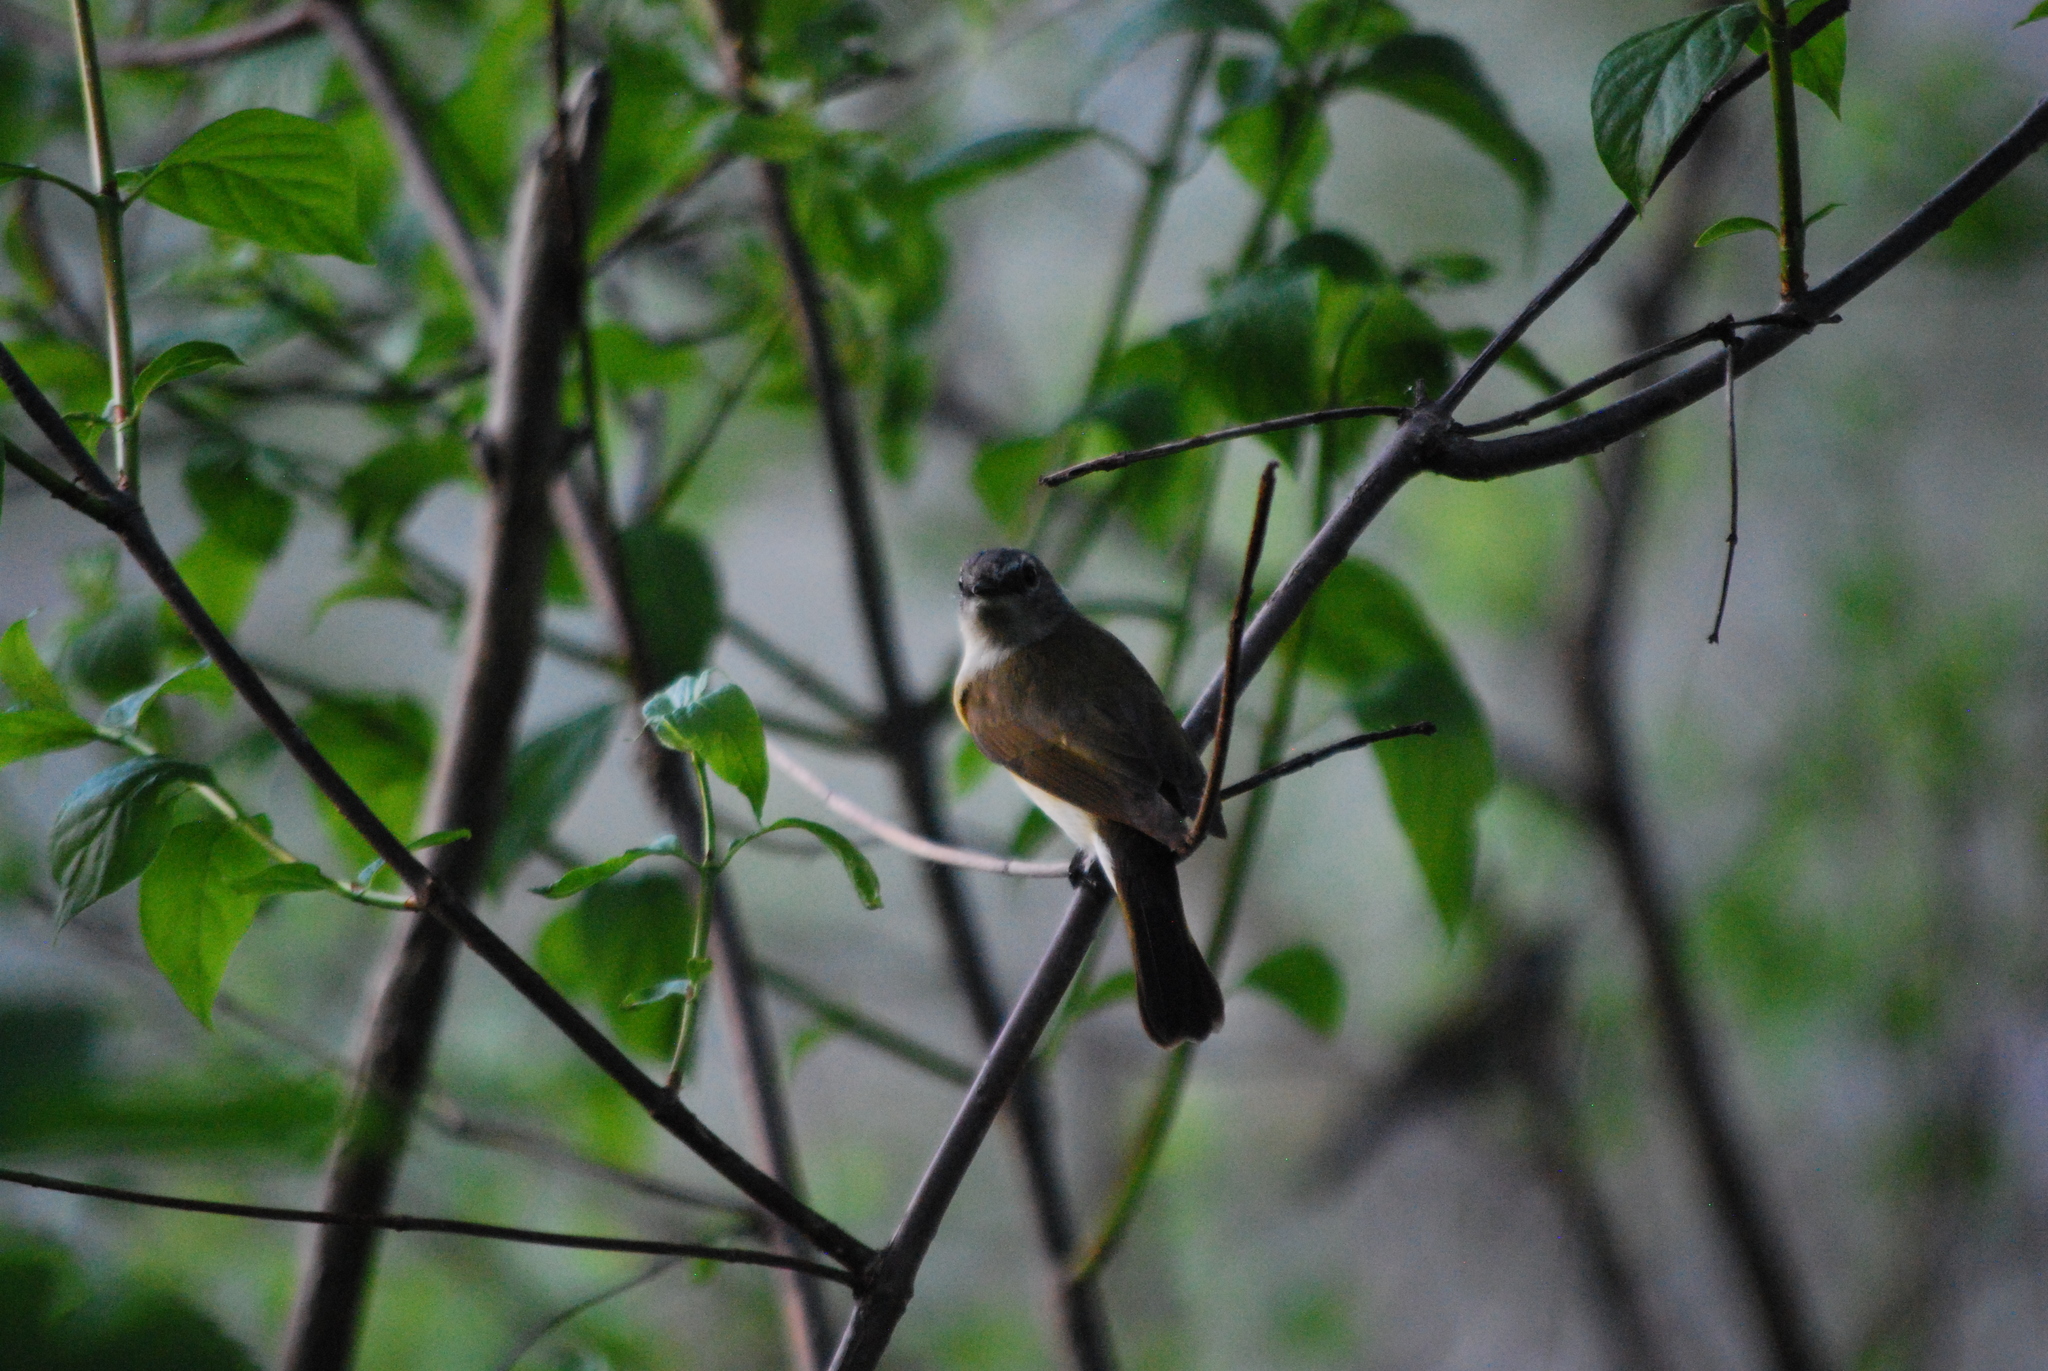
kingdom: Animalia
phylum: Chordata
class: Aves
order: Passeriformes
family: Parulidae
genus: Setophaga
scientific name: Setophaga ruticilla
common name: American redstart
